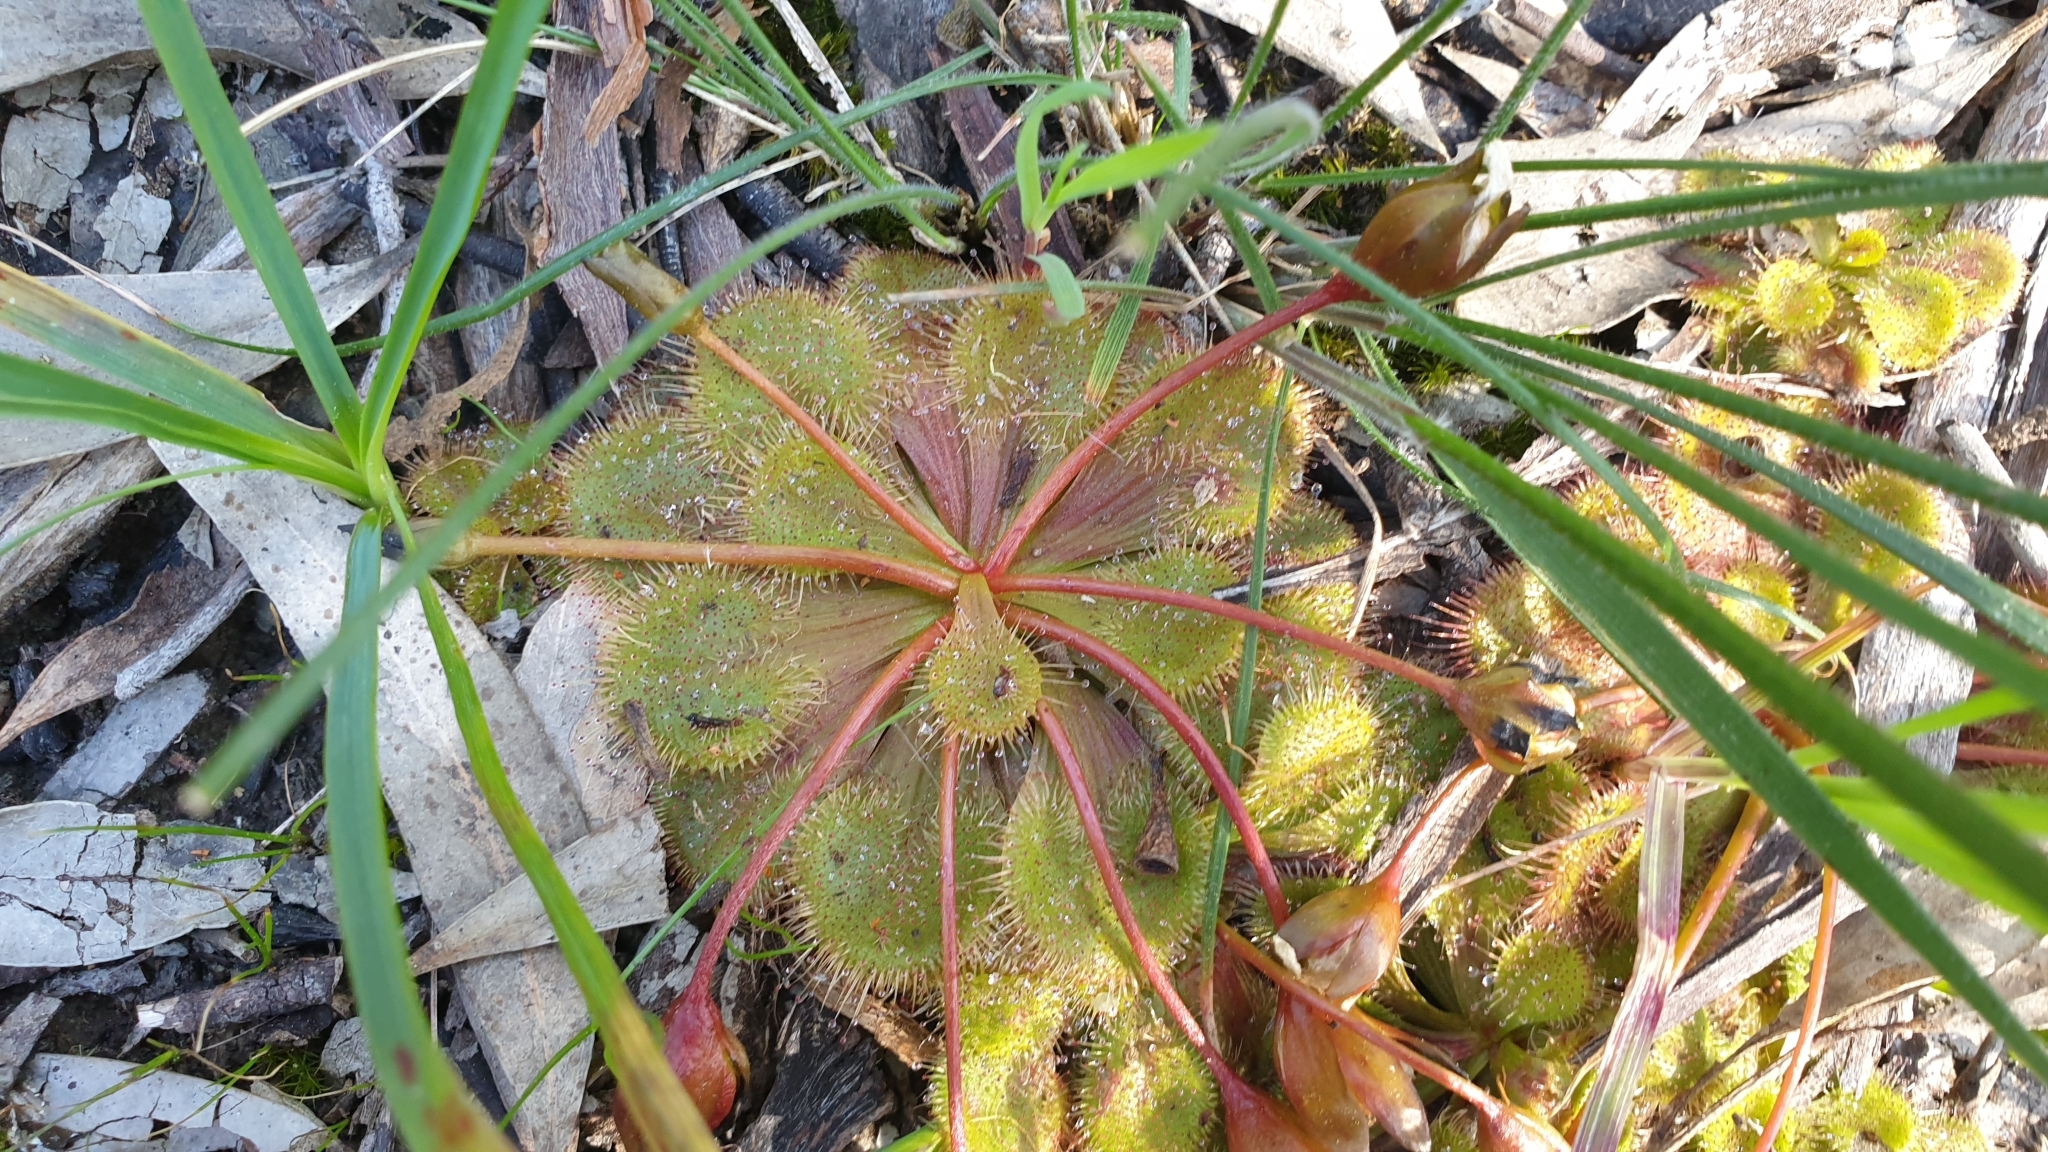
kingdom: Plantae
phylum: Tracheophyta
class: Magnoliopsida
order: Caryophyllales
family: Droseraceae
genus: Drosera
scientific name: Drosera whittakeri
